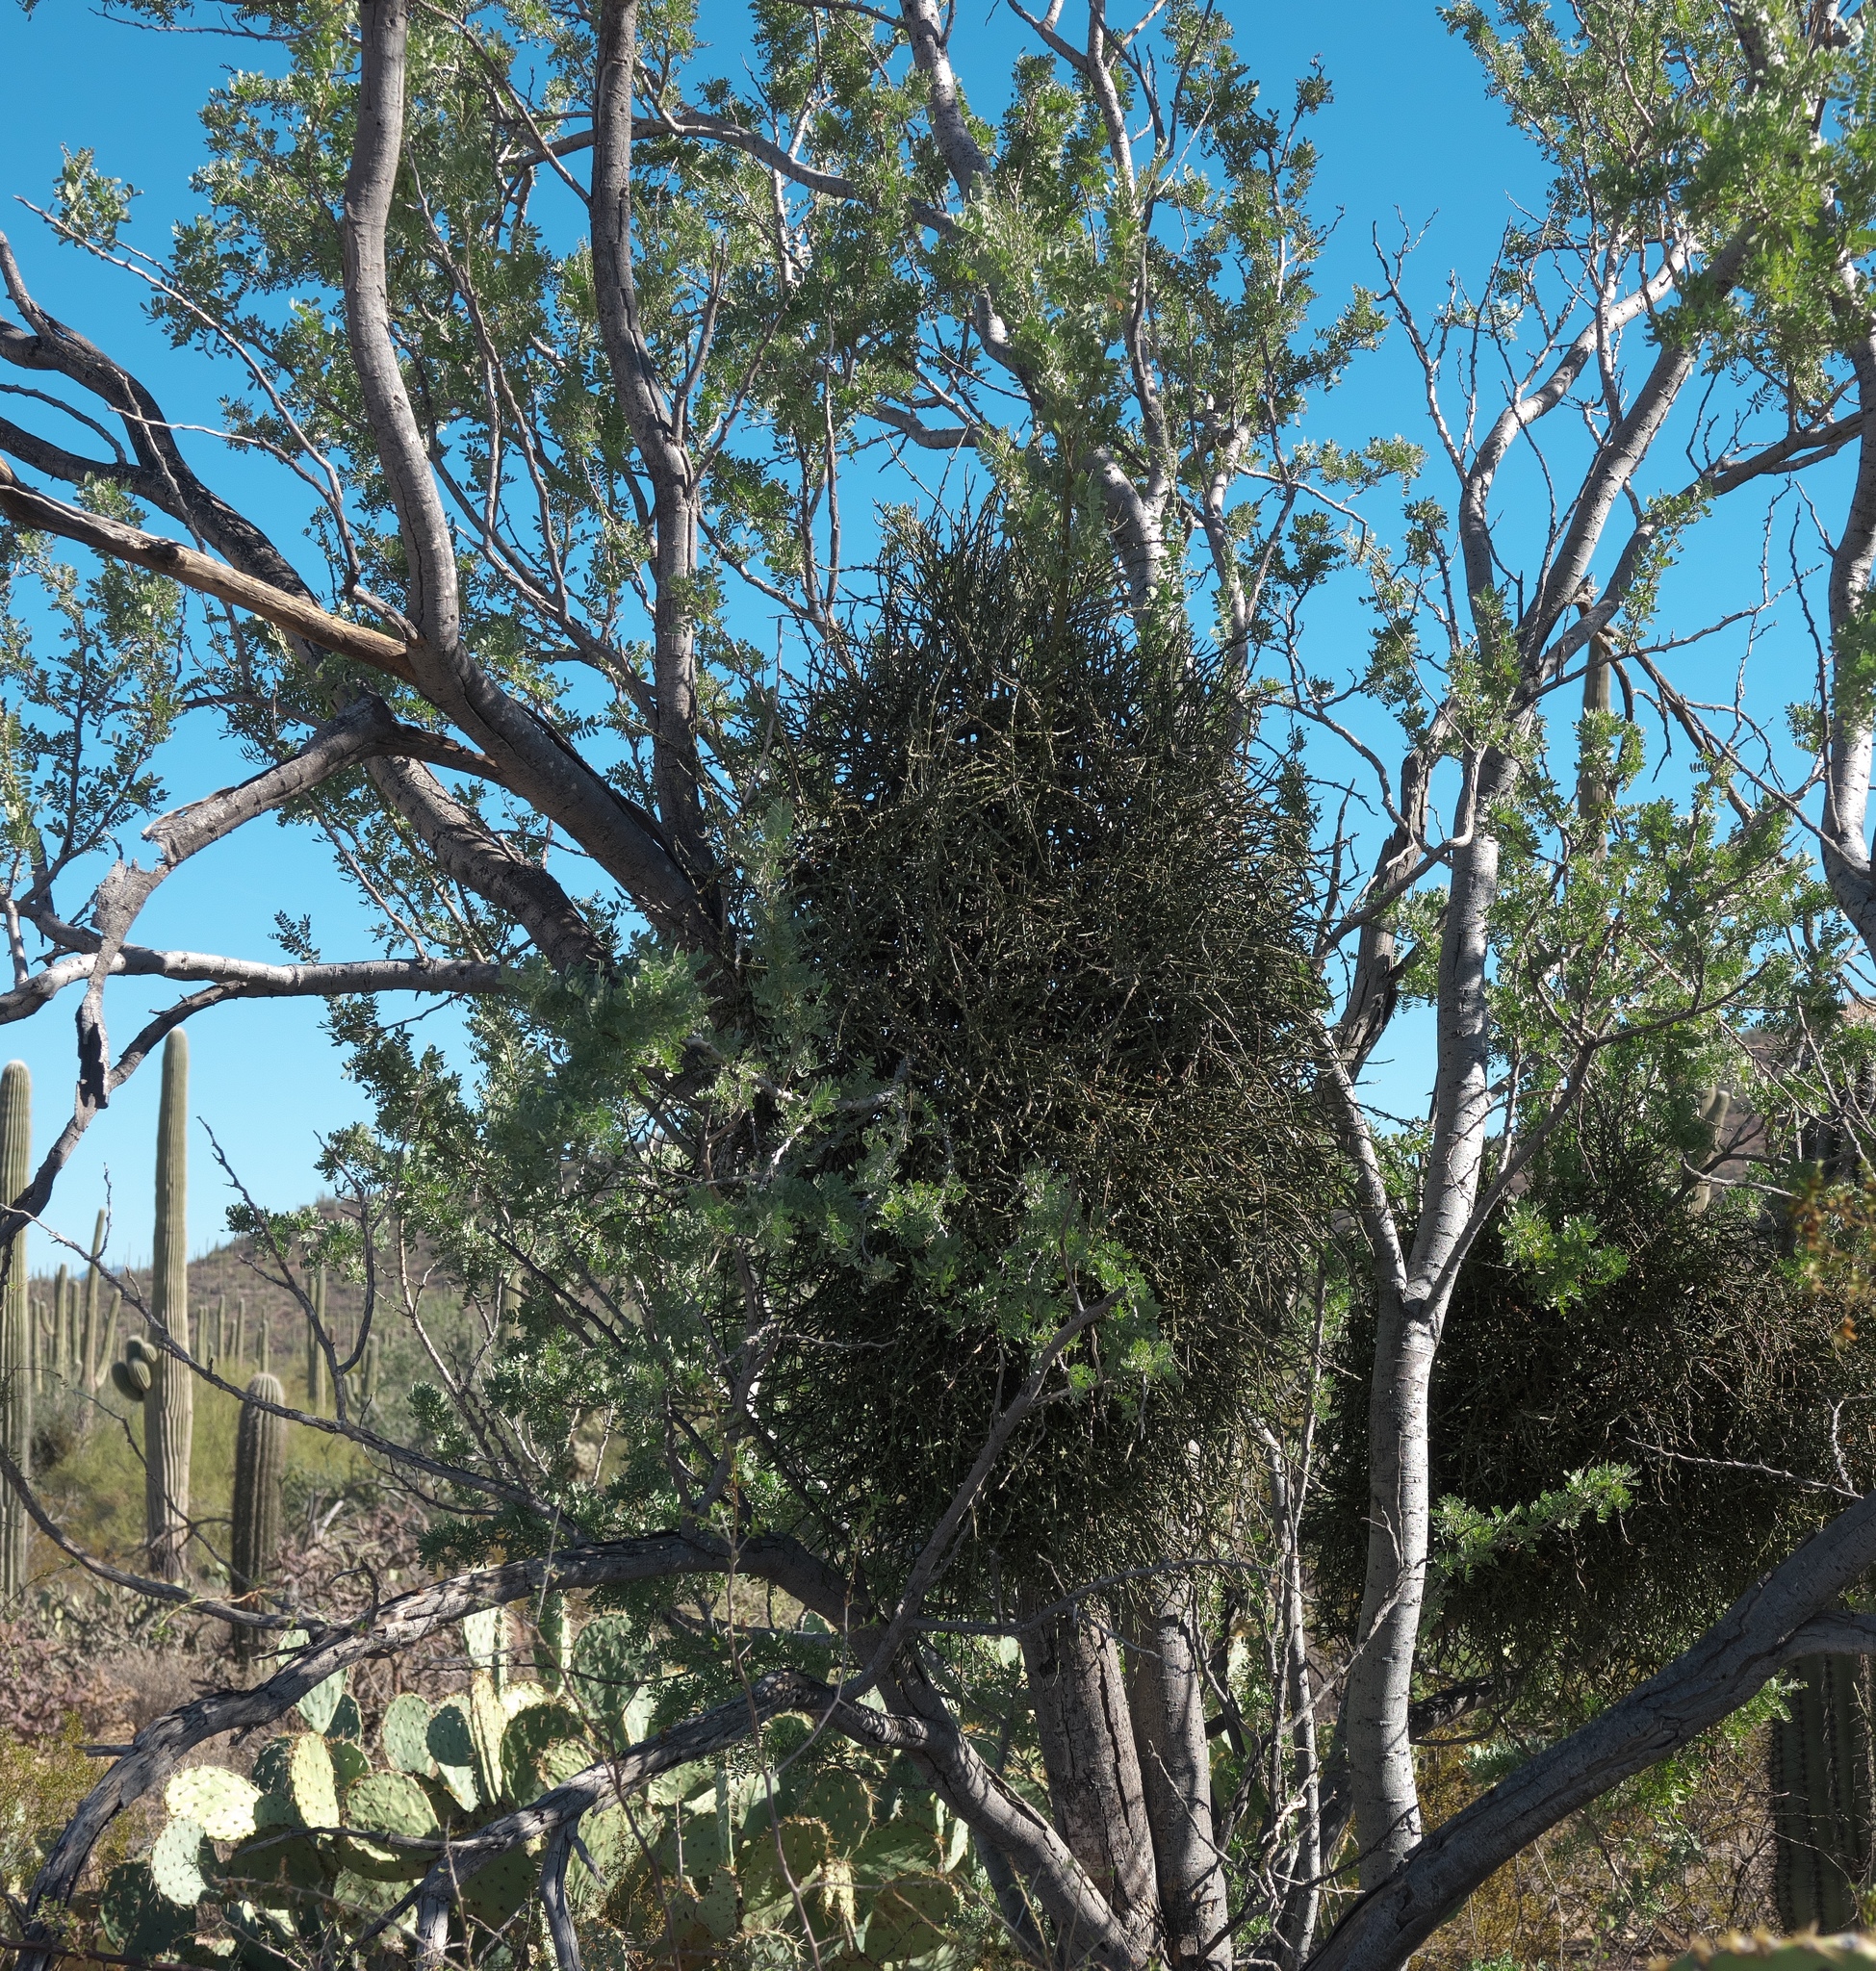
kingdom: Plantae
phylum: Tracheophyta
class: Magnoliopsida
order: Santalales
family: Viscaceae
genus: Phoradendron
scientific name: Phoradendron californicum
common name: Acacia mistletoe
